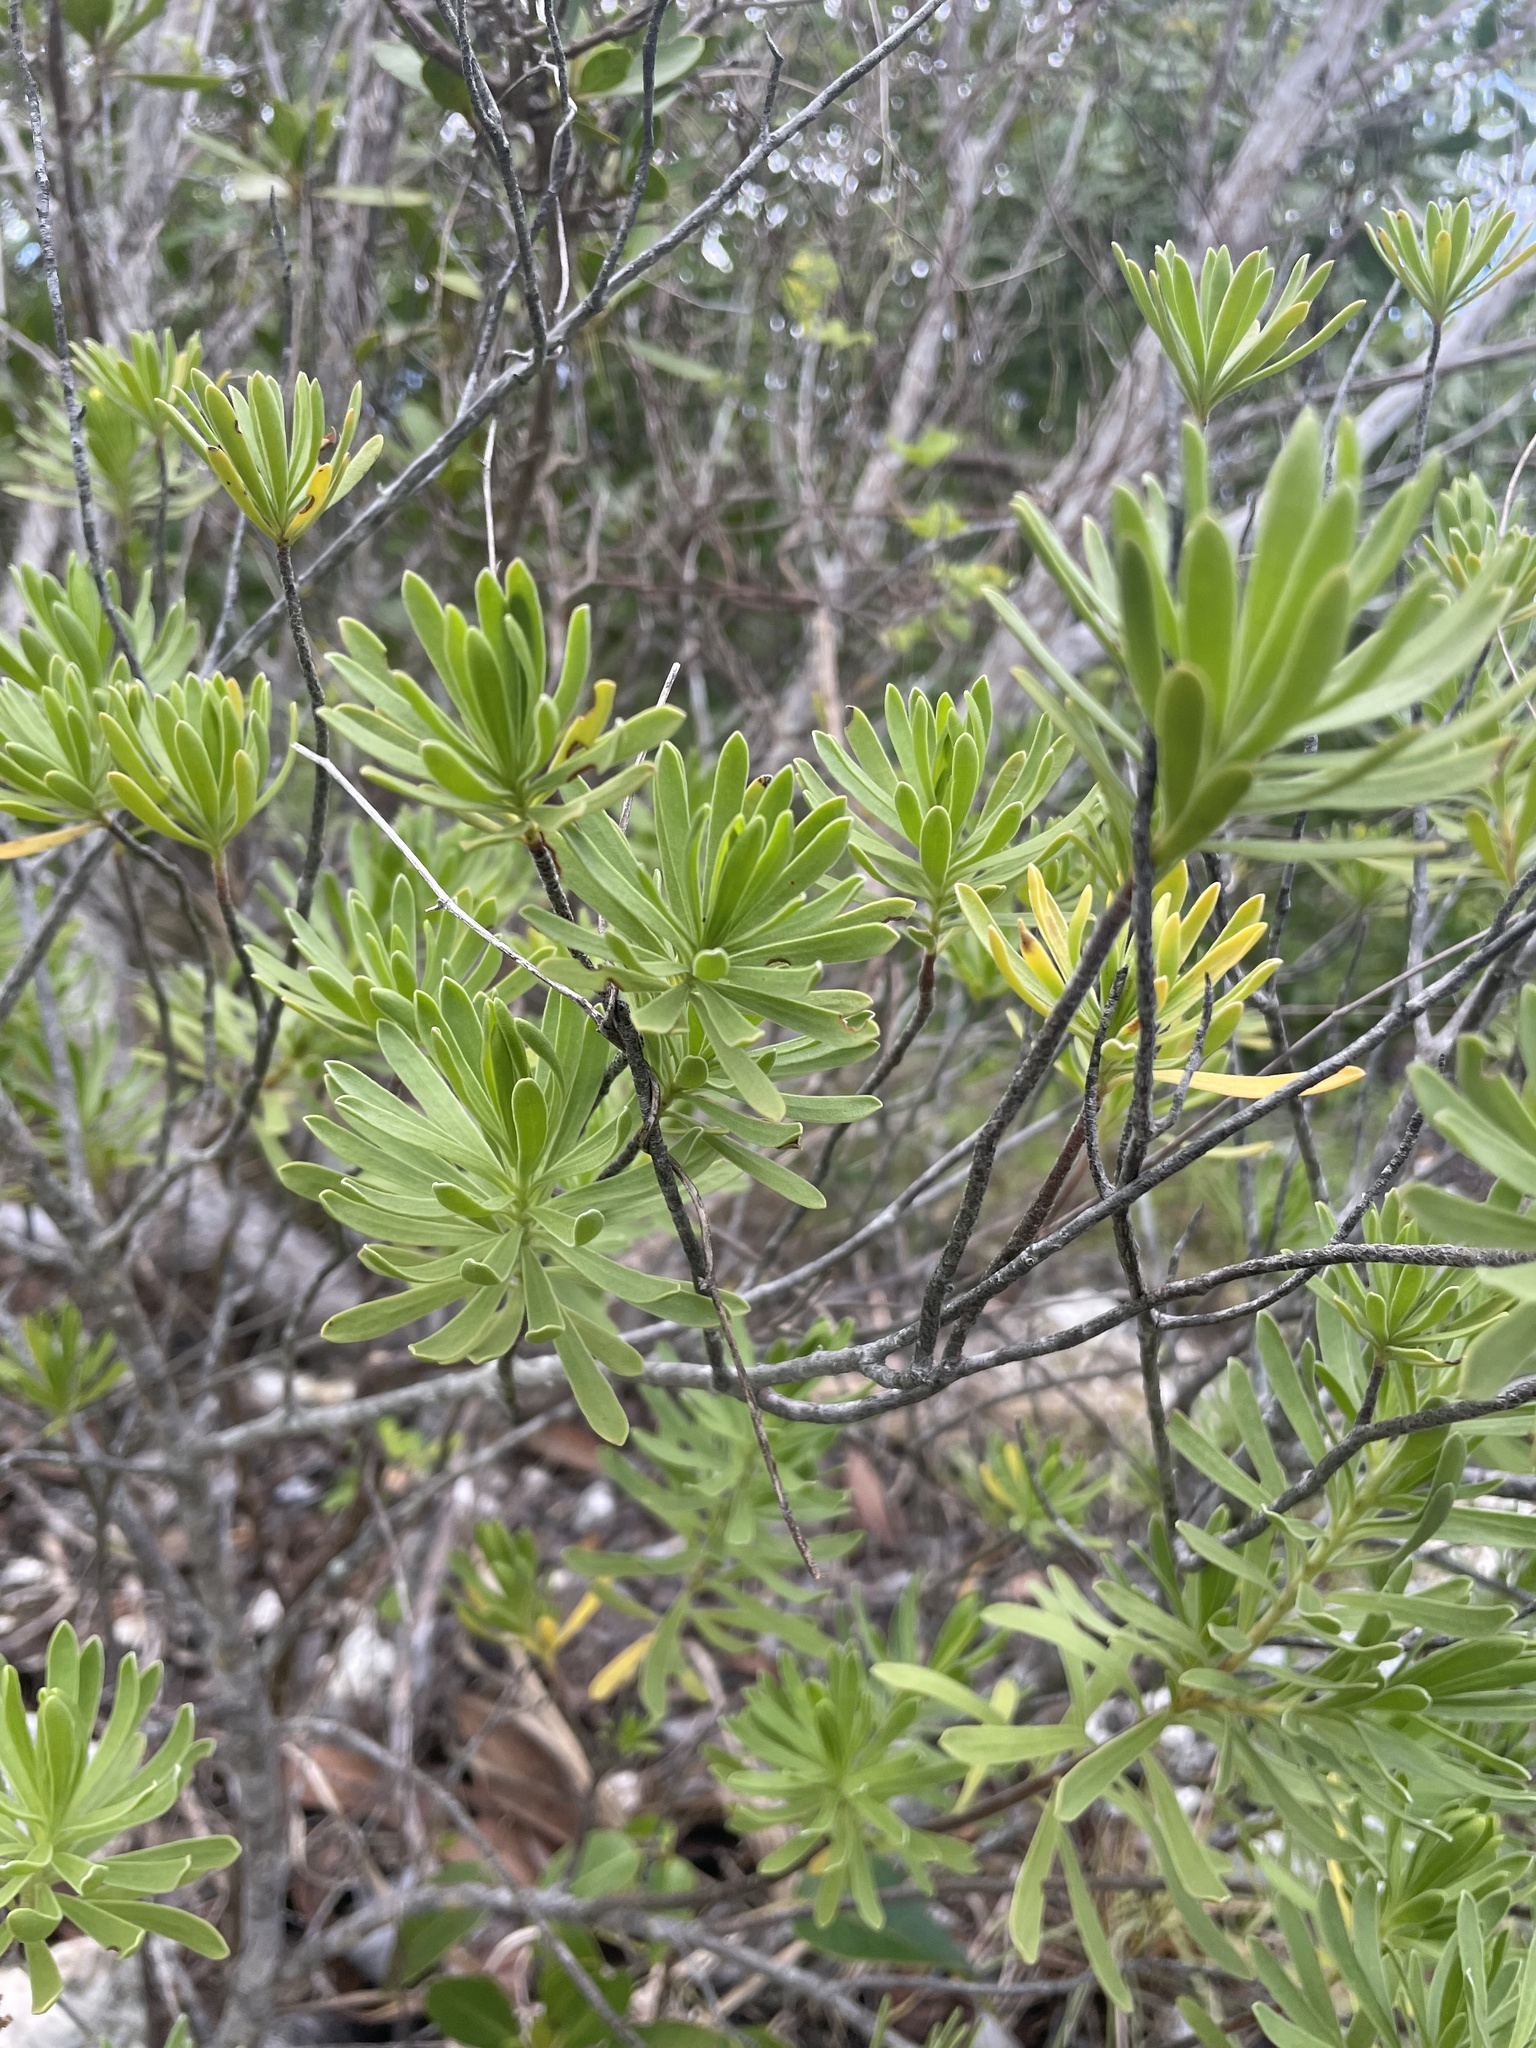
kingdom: Plantae
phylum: Tracheophyta
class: Magnoliopsida
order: Fabales
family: Surianaceae
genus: Suriana
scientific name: Suriana maritima
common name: Bay-cedar
